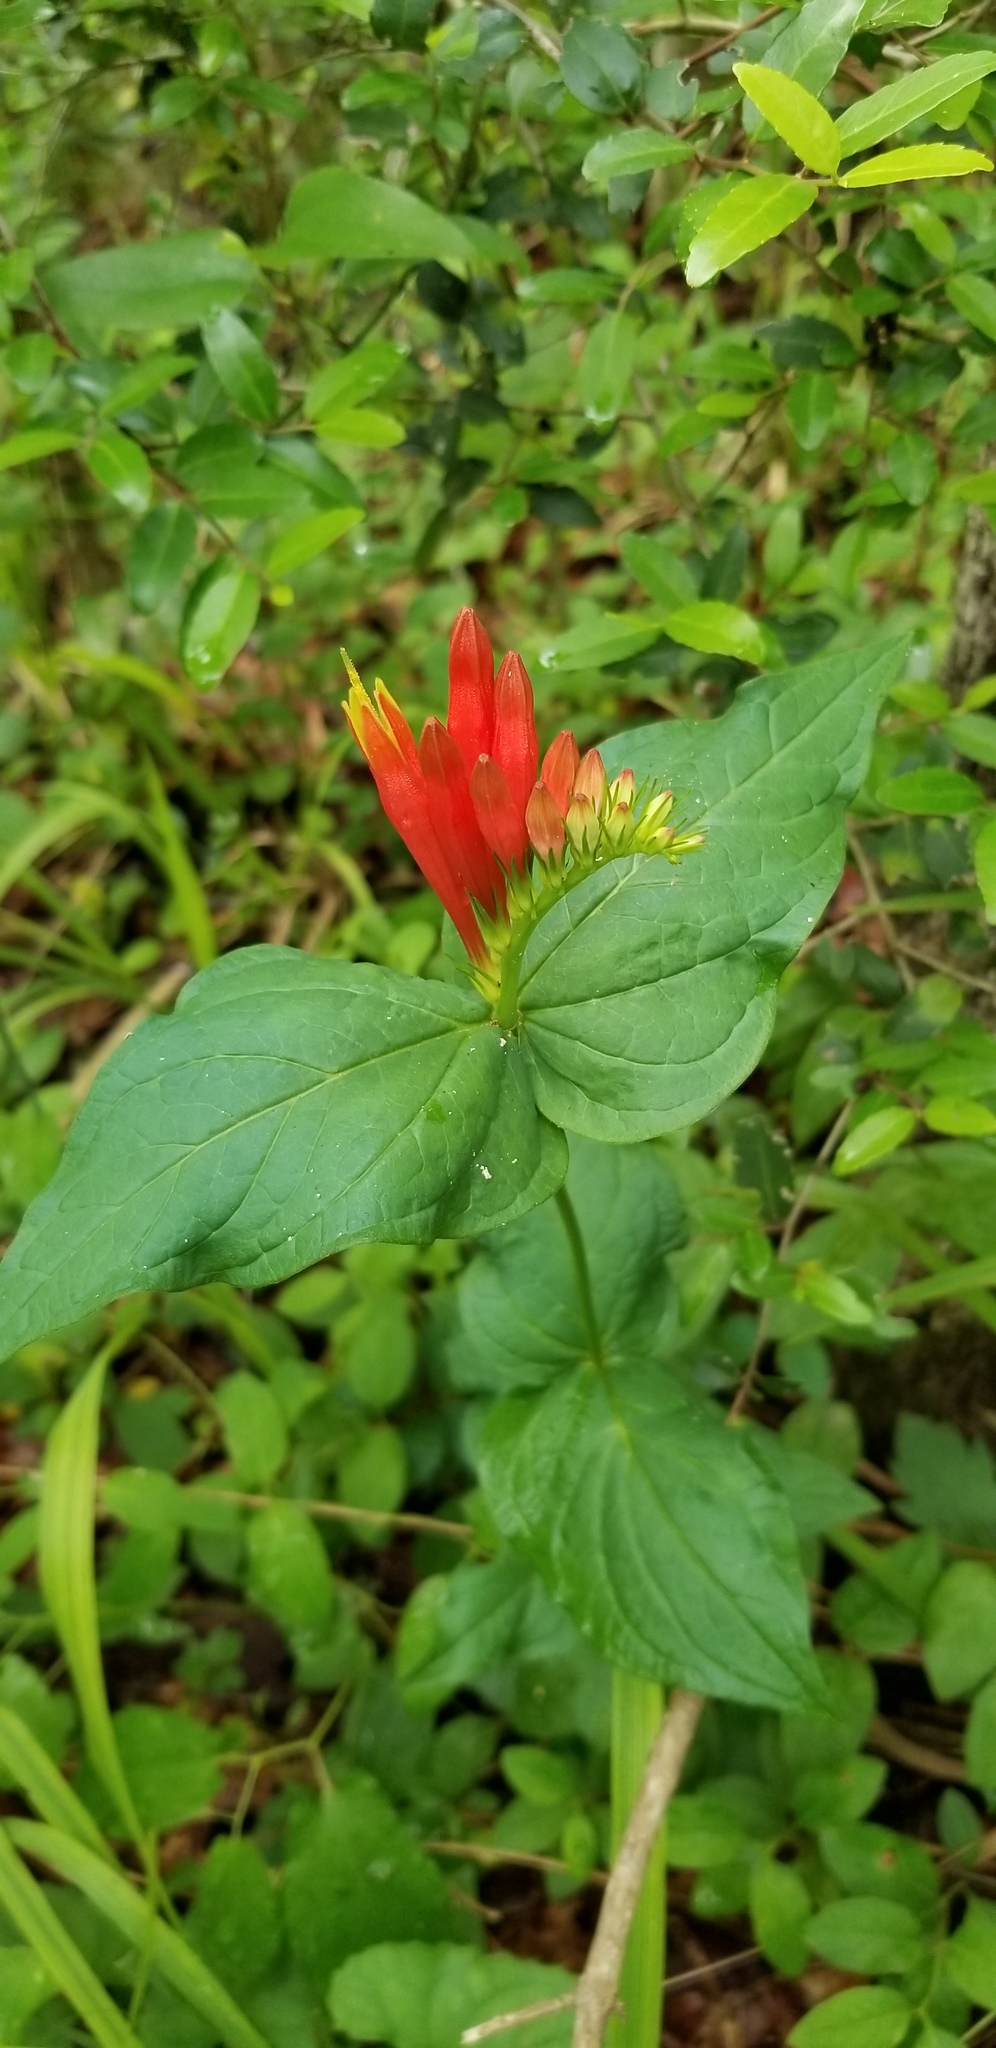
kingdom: Plantae
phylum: Tracheophyta
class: Magnoliopsida
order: Gentianales
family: Loganiaceae
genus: Spigelia
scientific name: Spigelia marilandica
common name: Indian-pink
